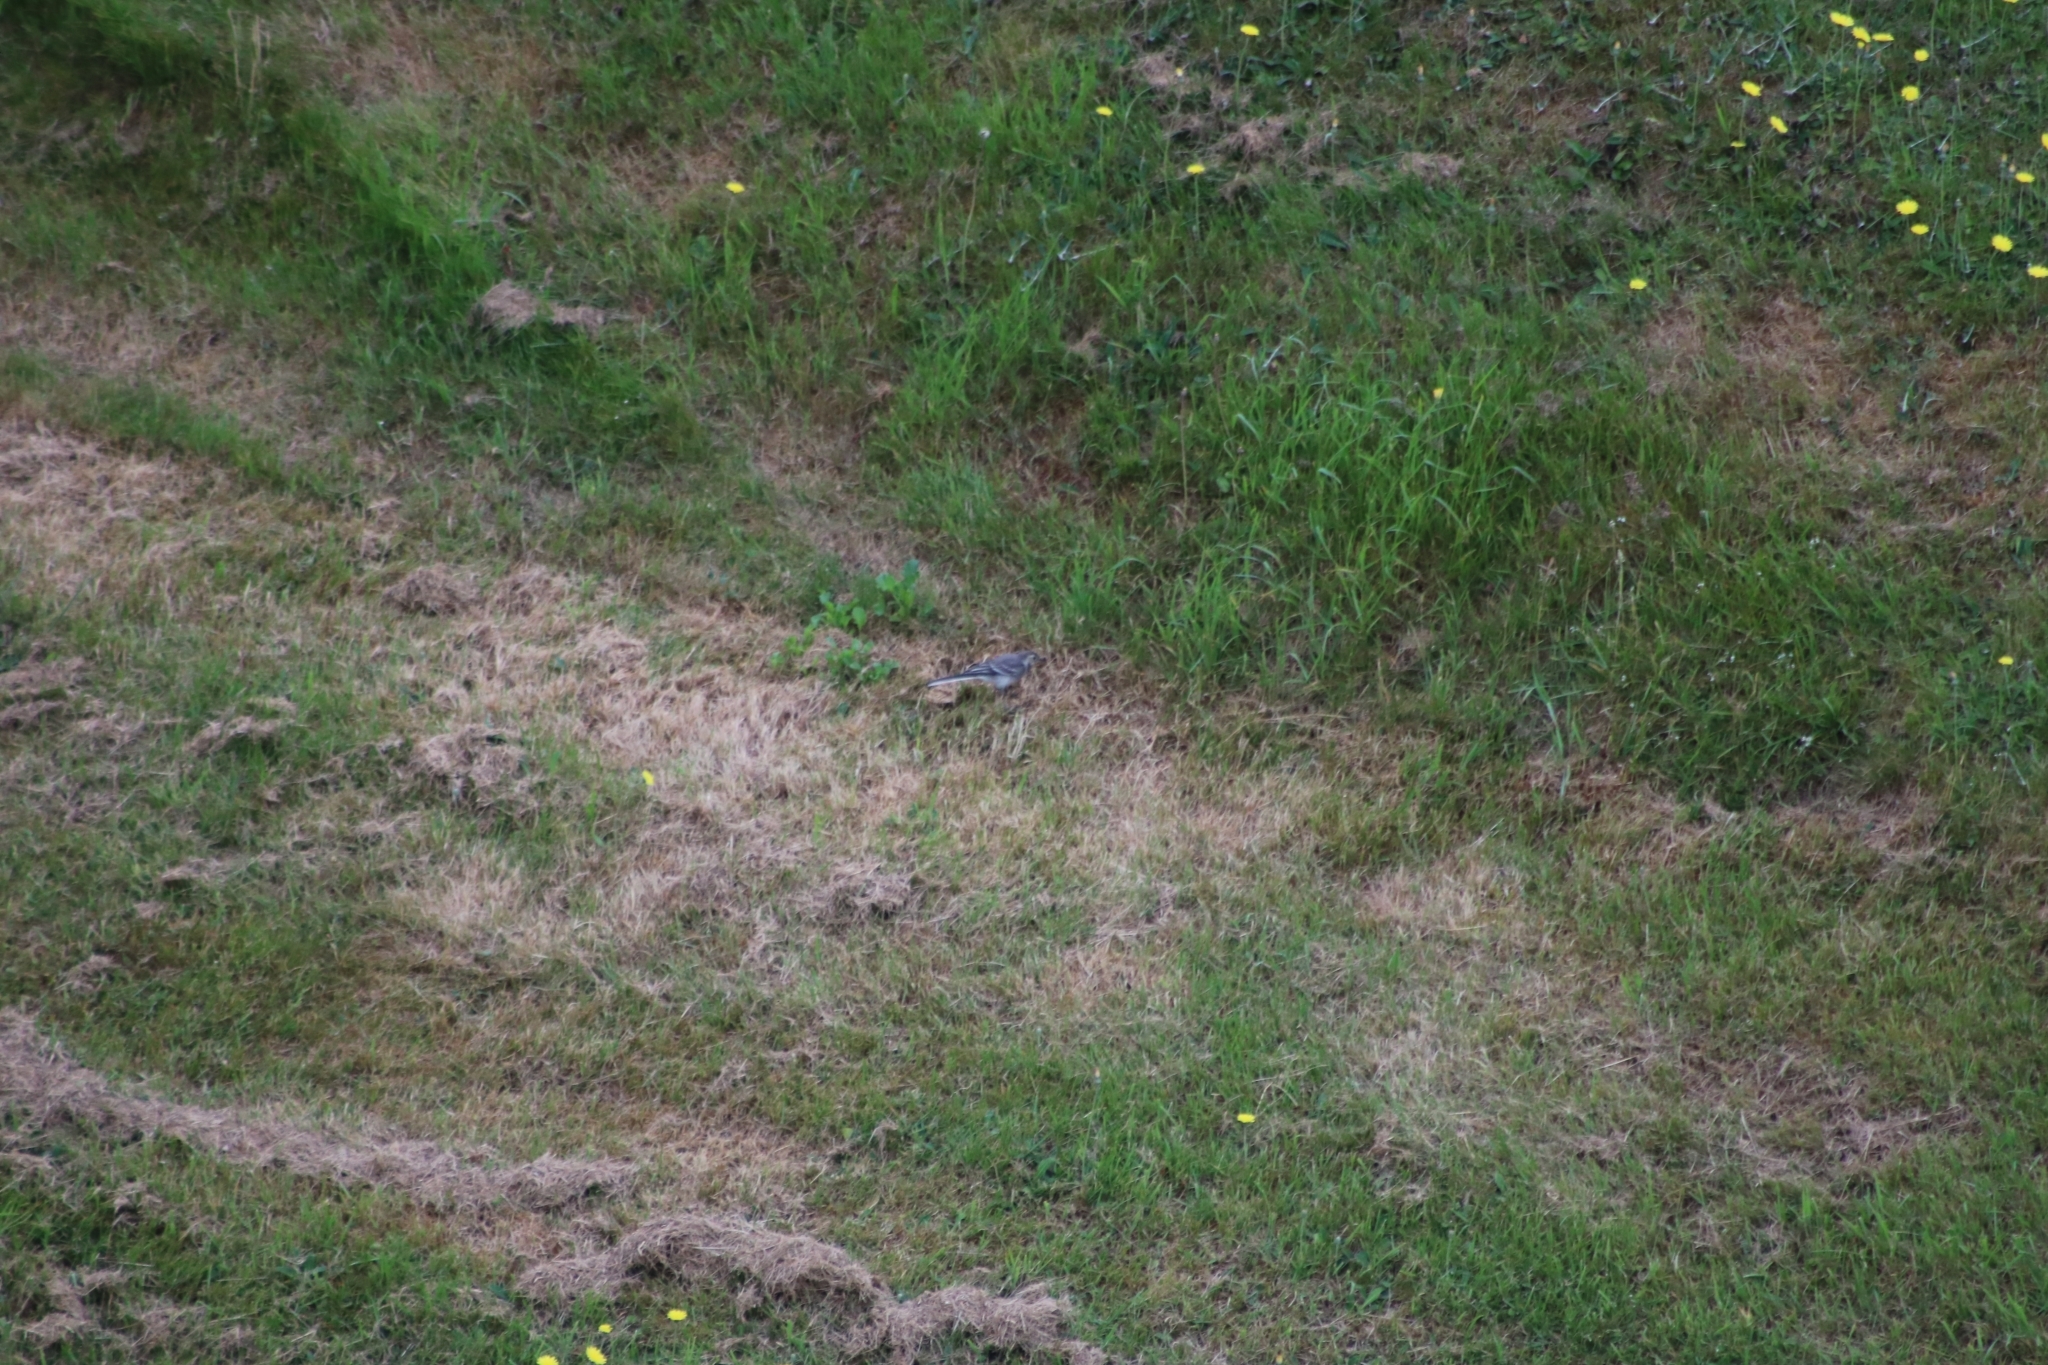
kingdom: Animalia
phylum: Chordata
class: Aves
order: Passeriformes
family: Motacillidae
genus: Motacilla
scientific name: Motacilla alba
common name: White wagtail
